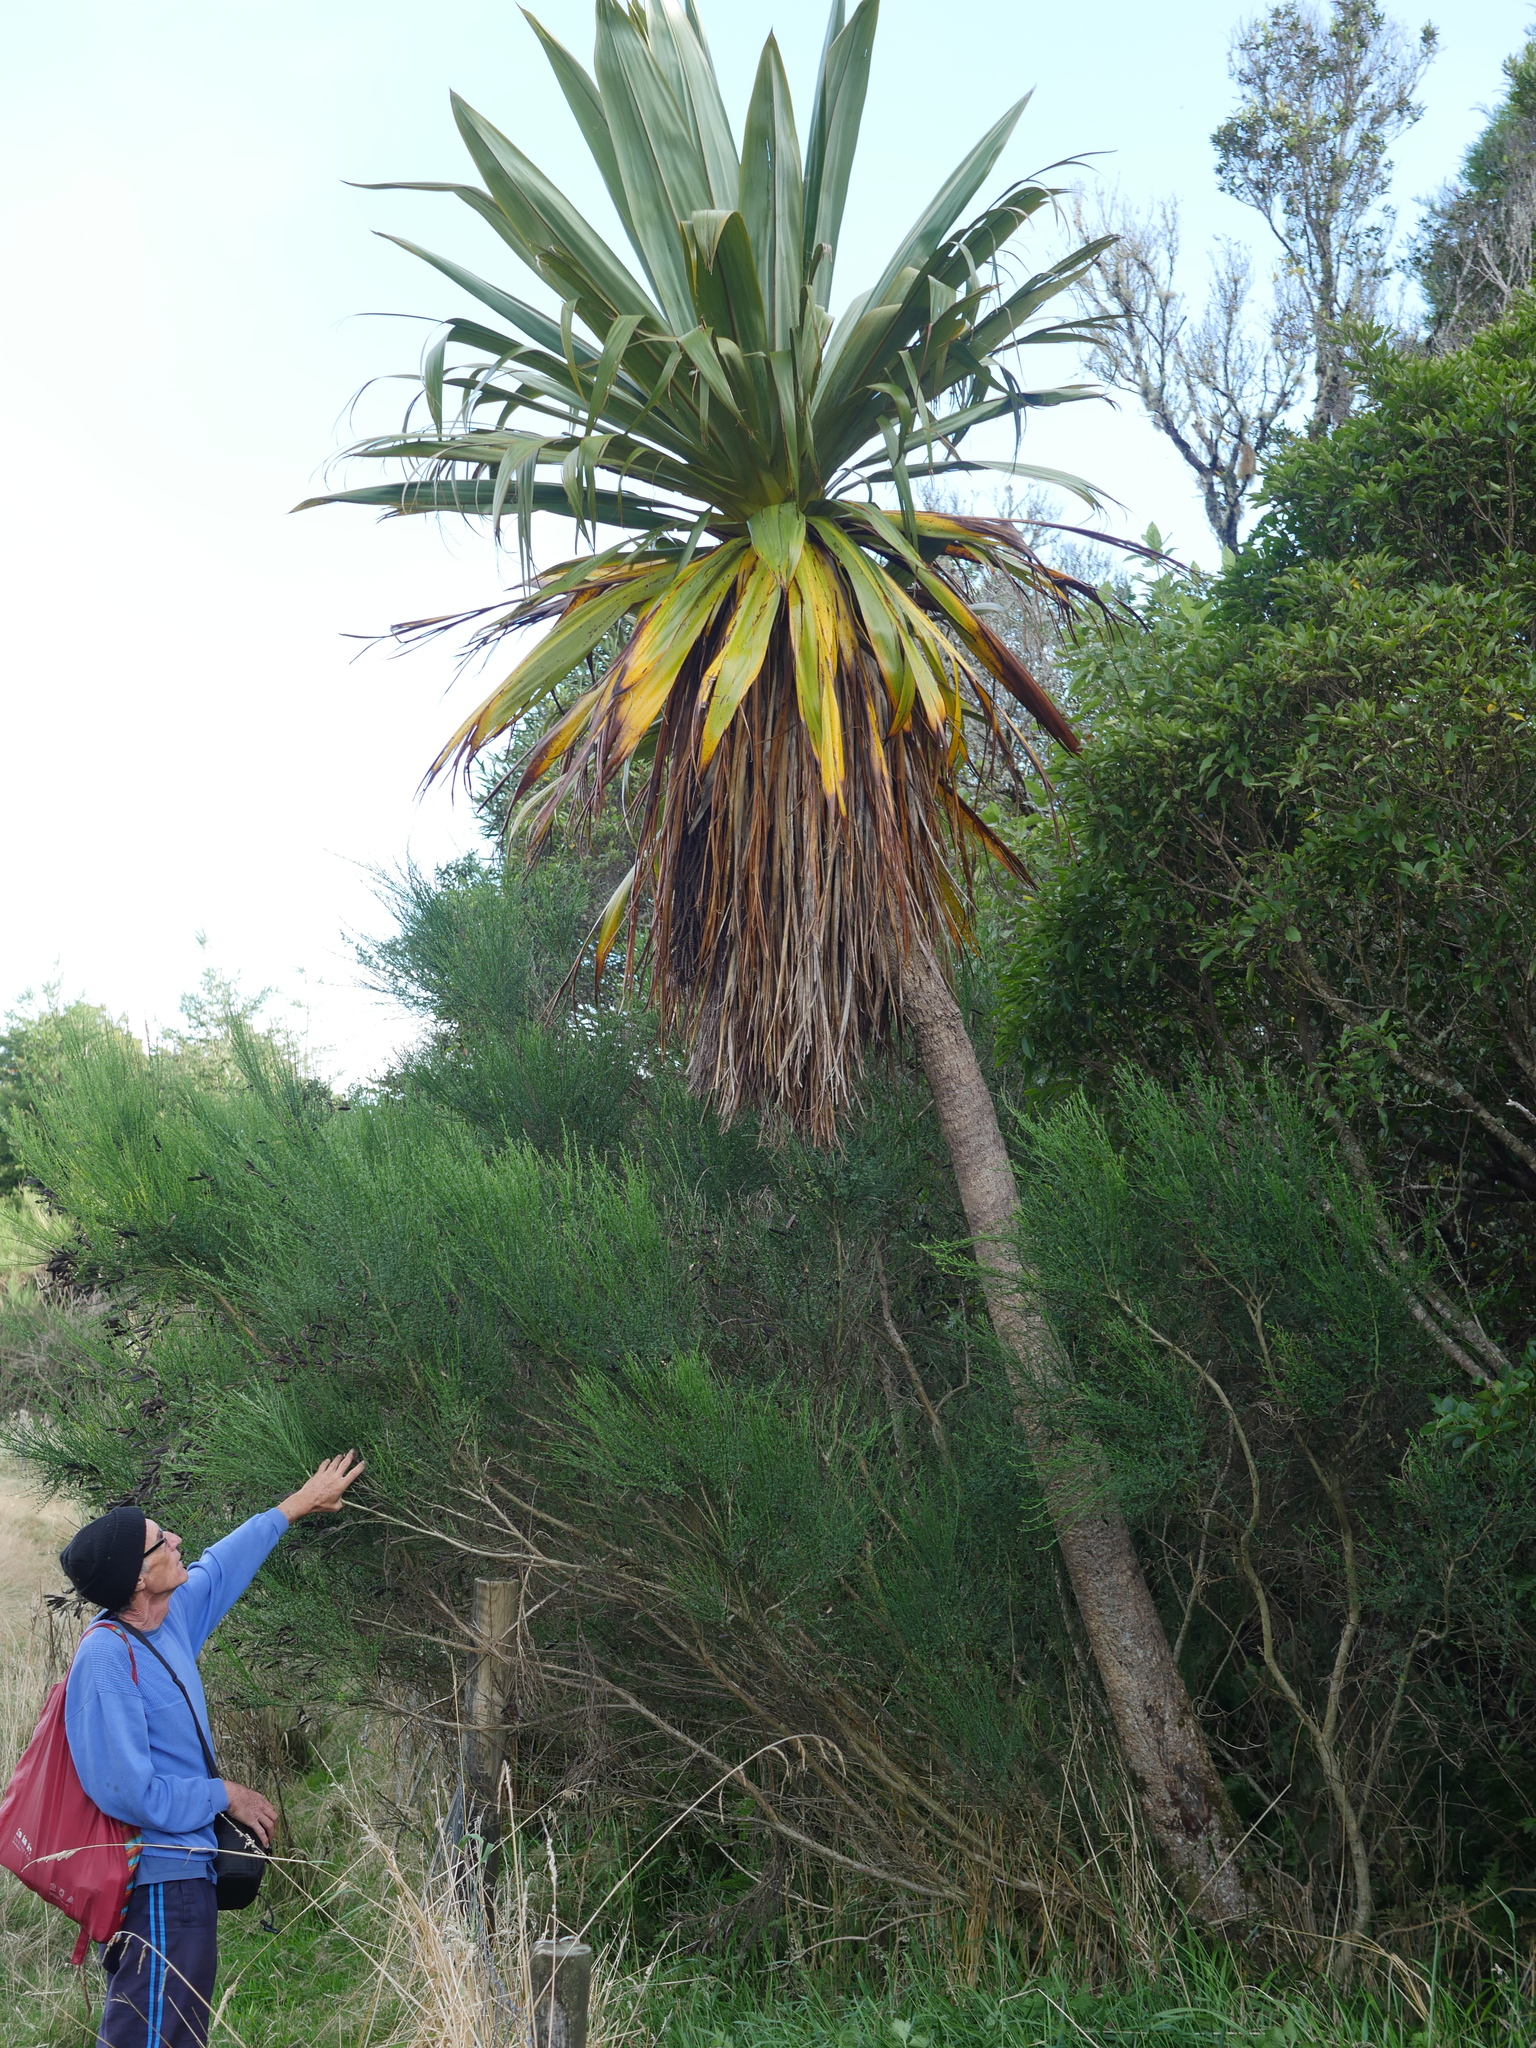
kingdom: Plantae
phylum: Tracheophyta
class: Liliopsida
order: Asparagales
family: Asparagaceae
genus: Cordyline
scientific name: Cordyline indivisa
